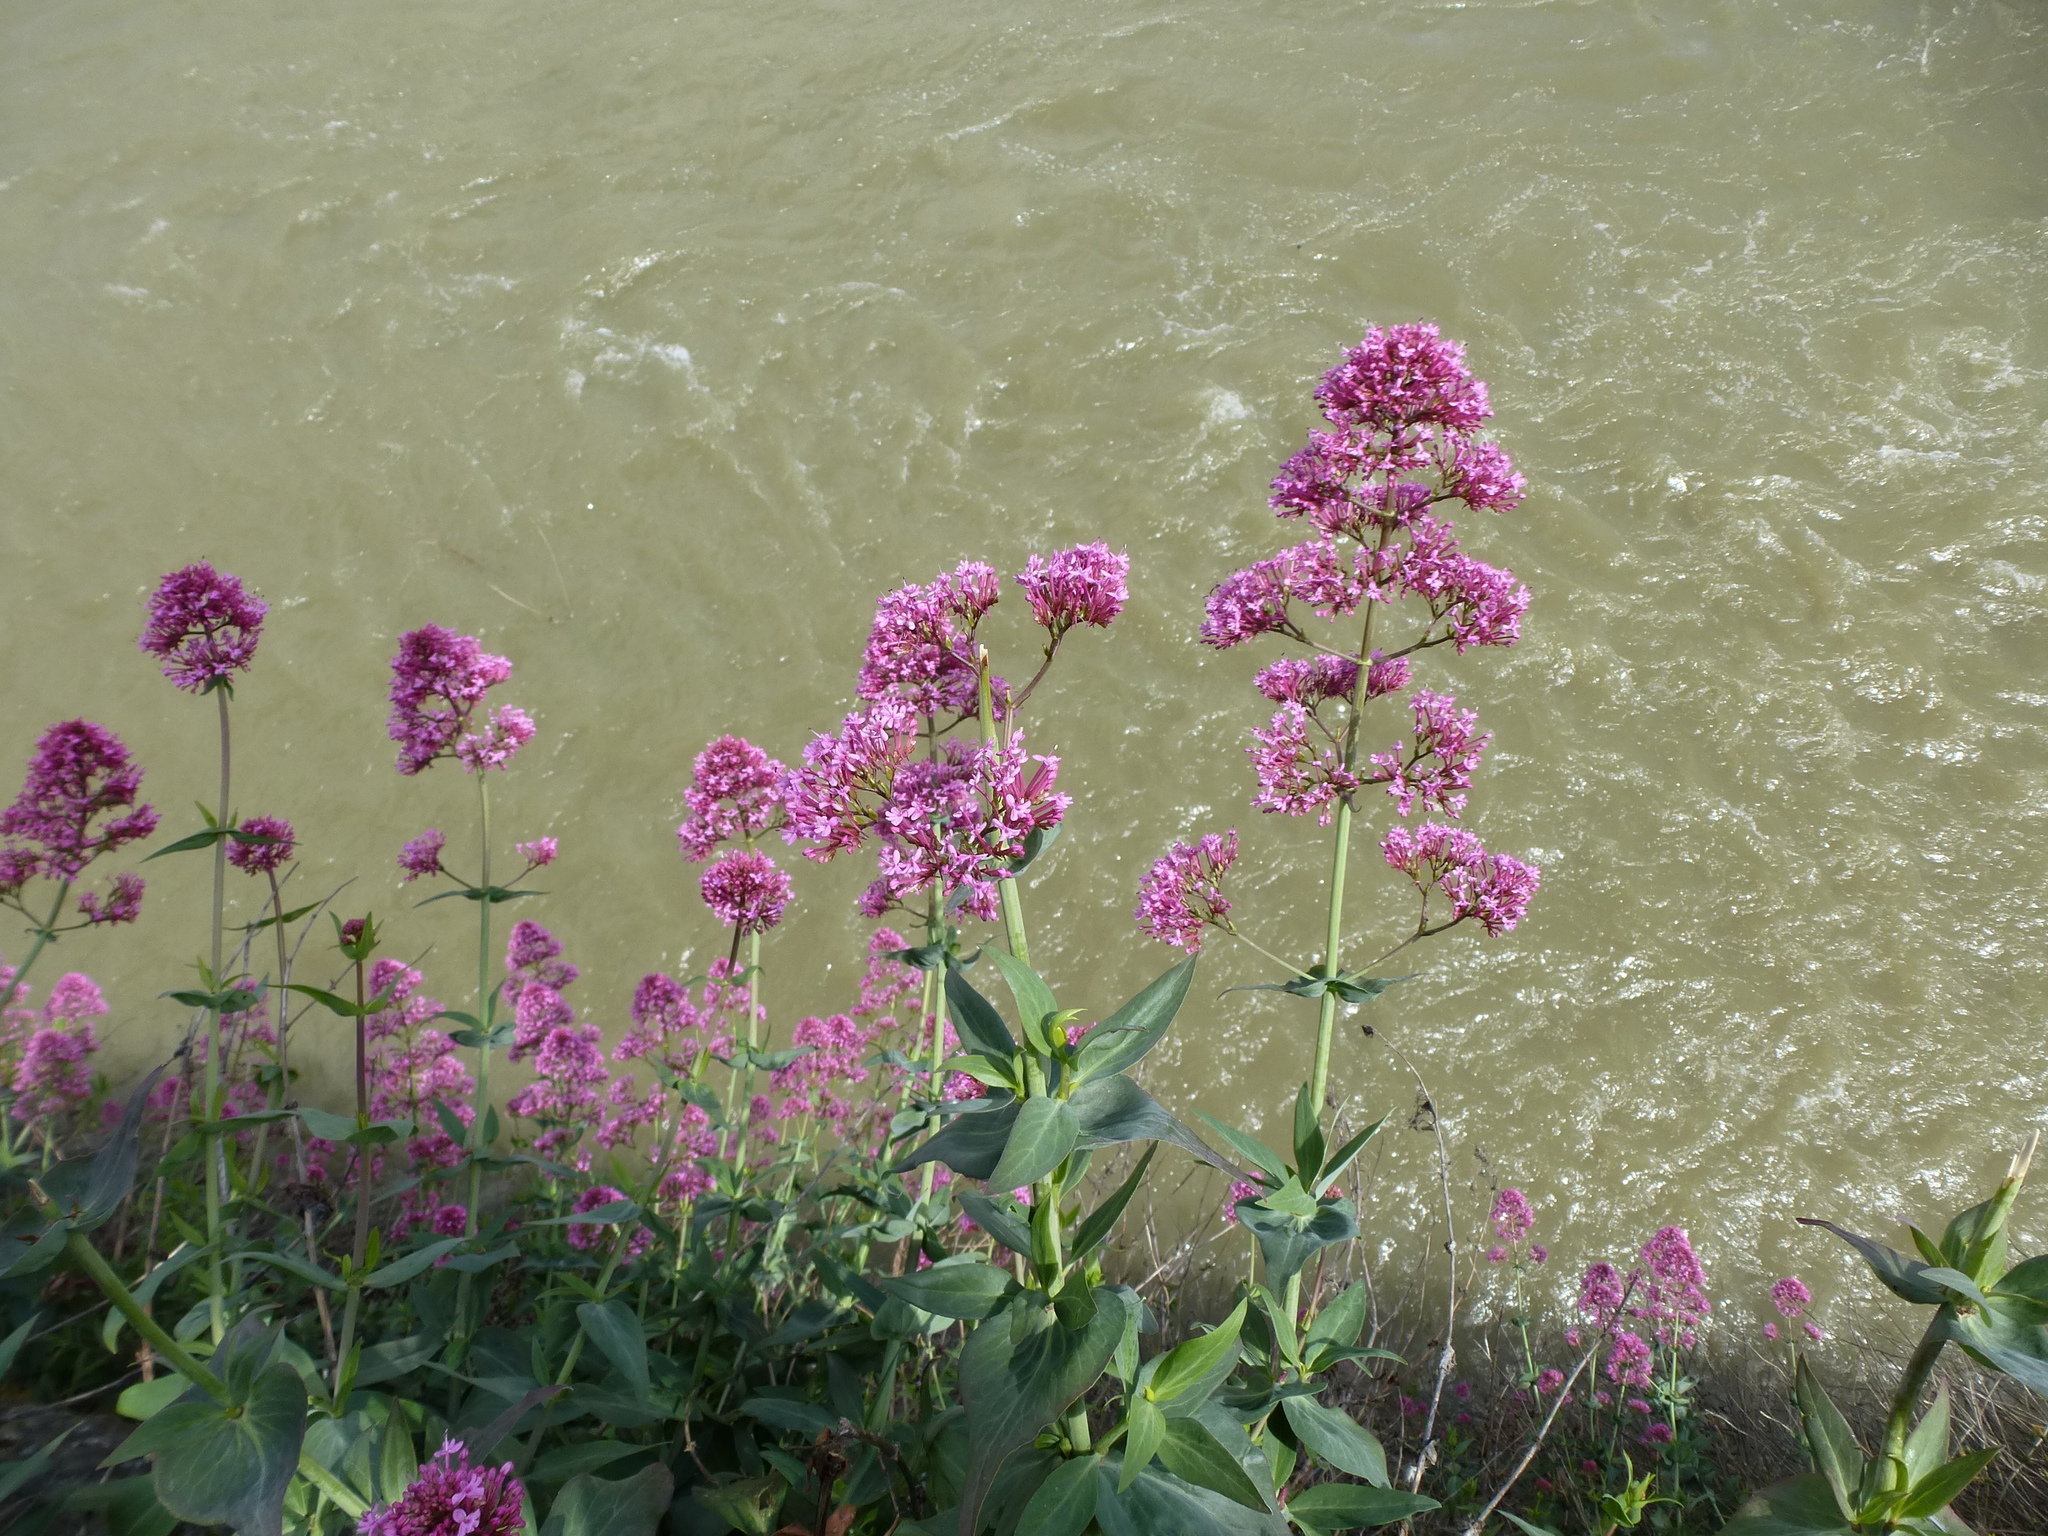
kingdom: Plantae
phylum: Tracheophyta
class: Magnoliopsida
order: Dipsacales
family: Caprifoliaceae
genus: Centranthus
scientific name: Centranthus ruber
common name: Red valerian
